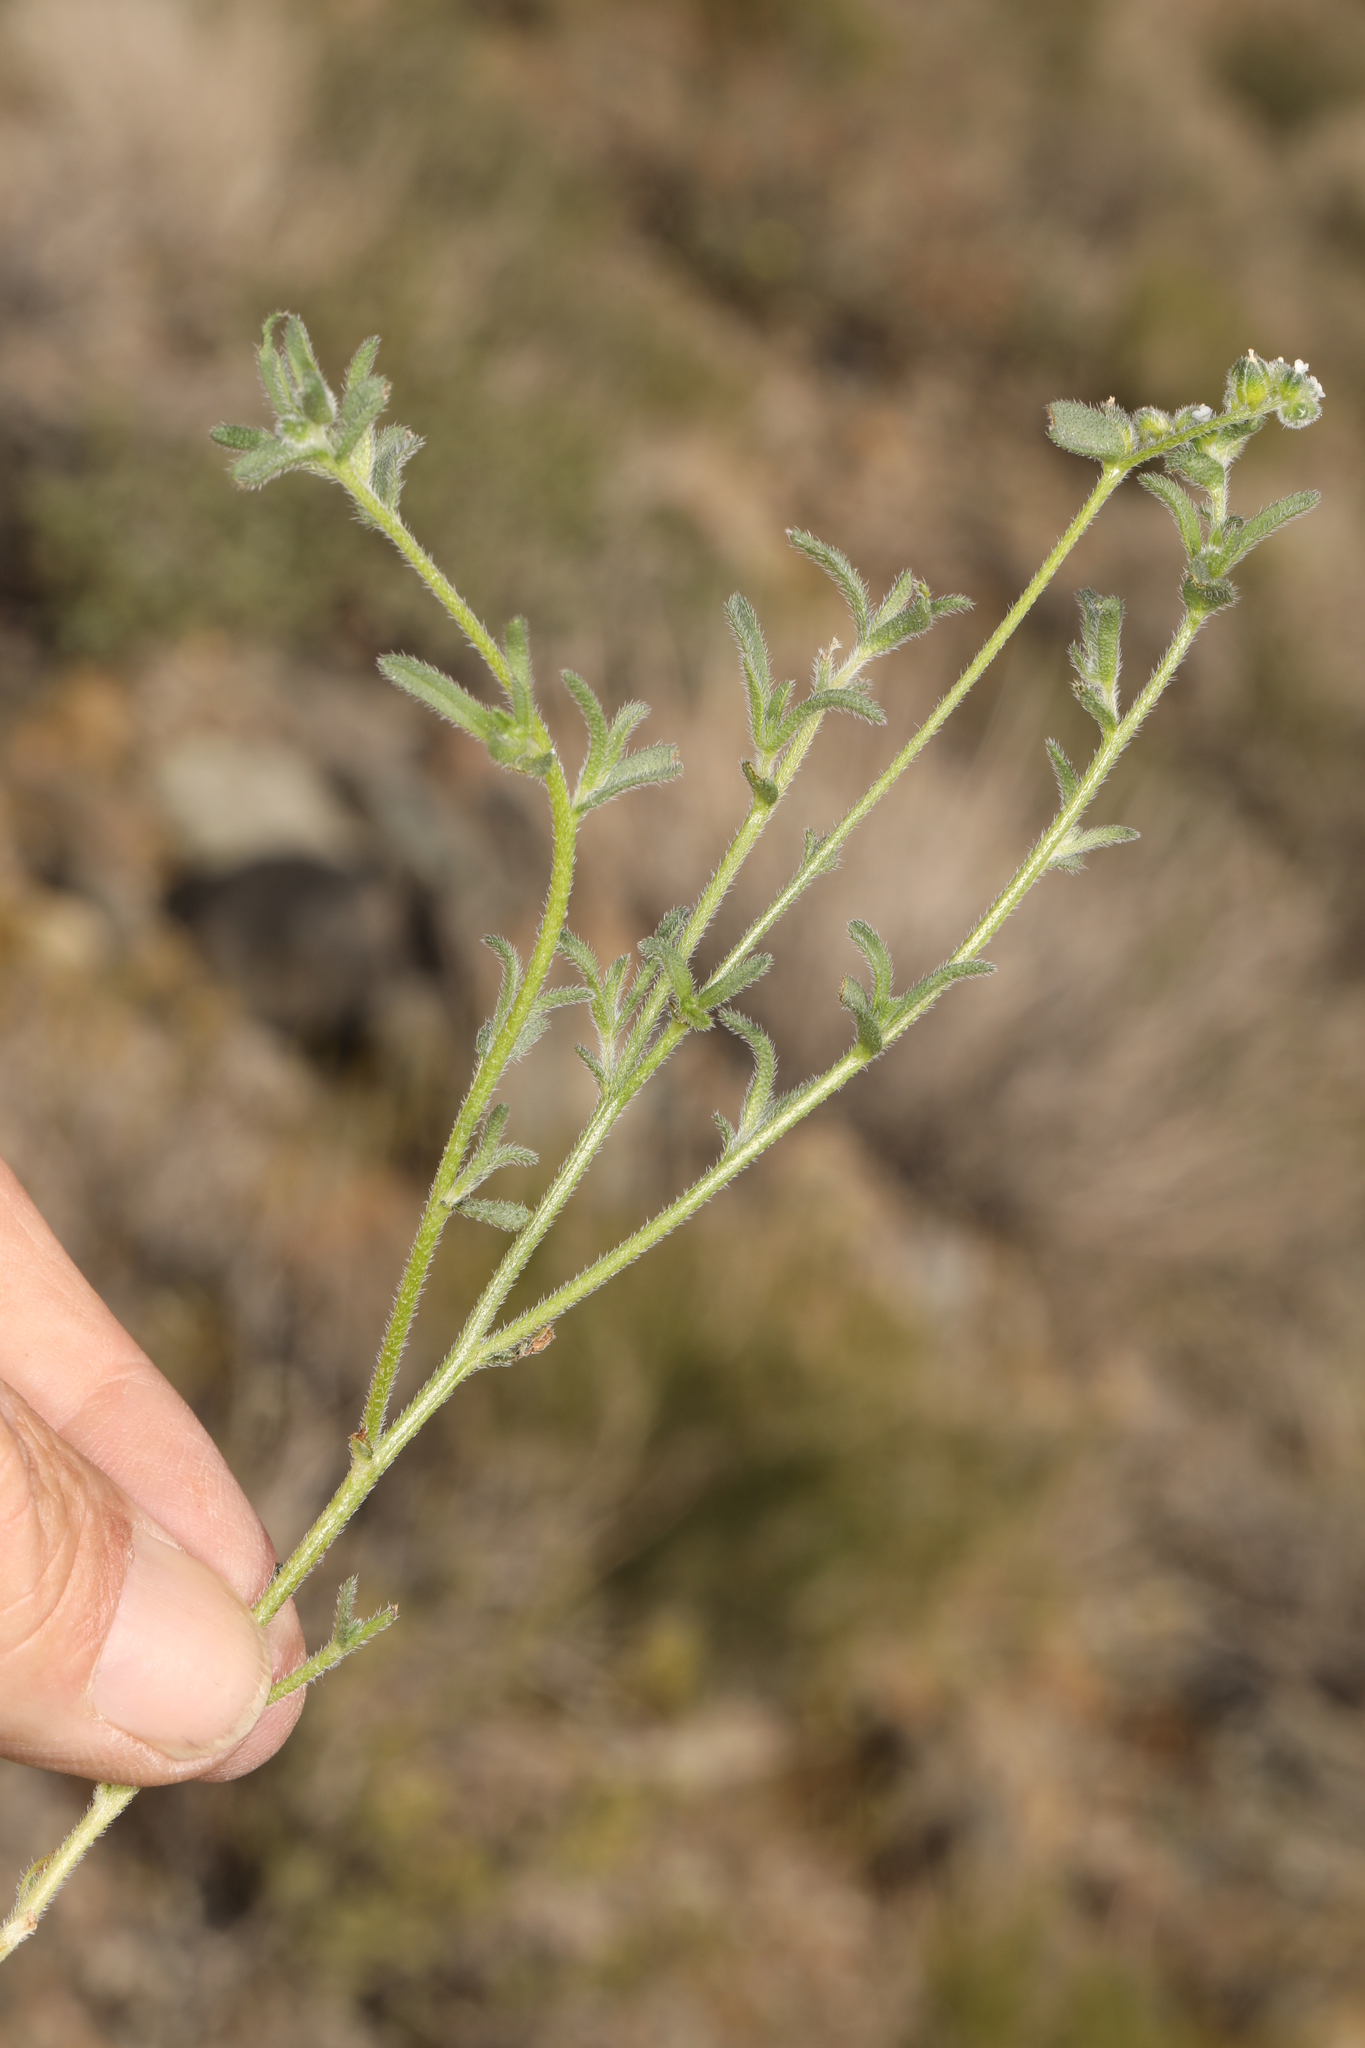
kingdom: Plantae
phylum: Tracheophyta
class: Magnoliopsida
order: Boraginales
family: Boraginaceae
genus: Cryptantha
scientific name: Cryptantha pterocarya
